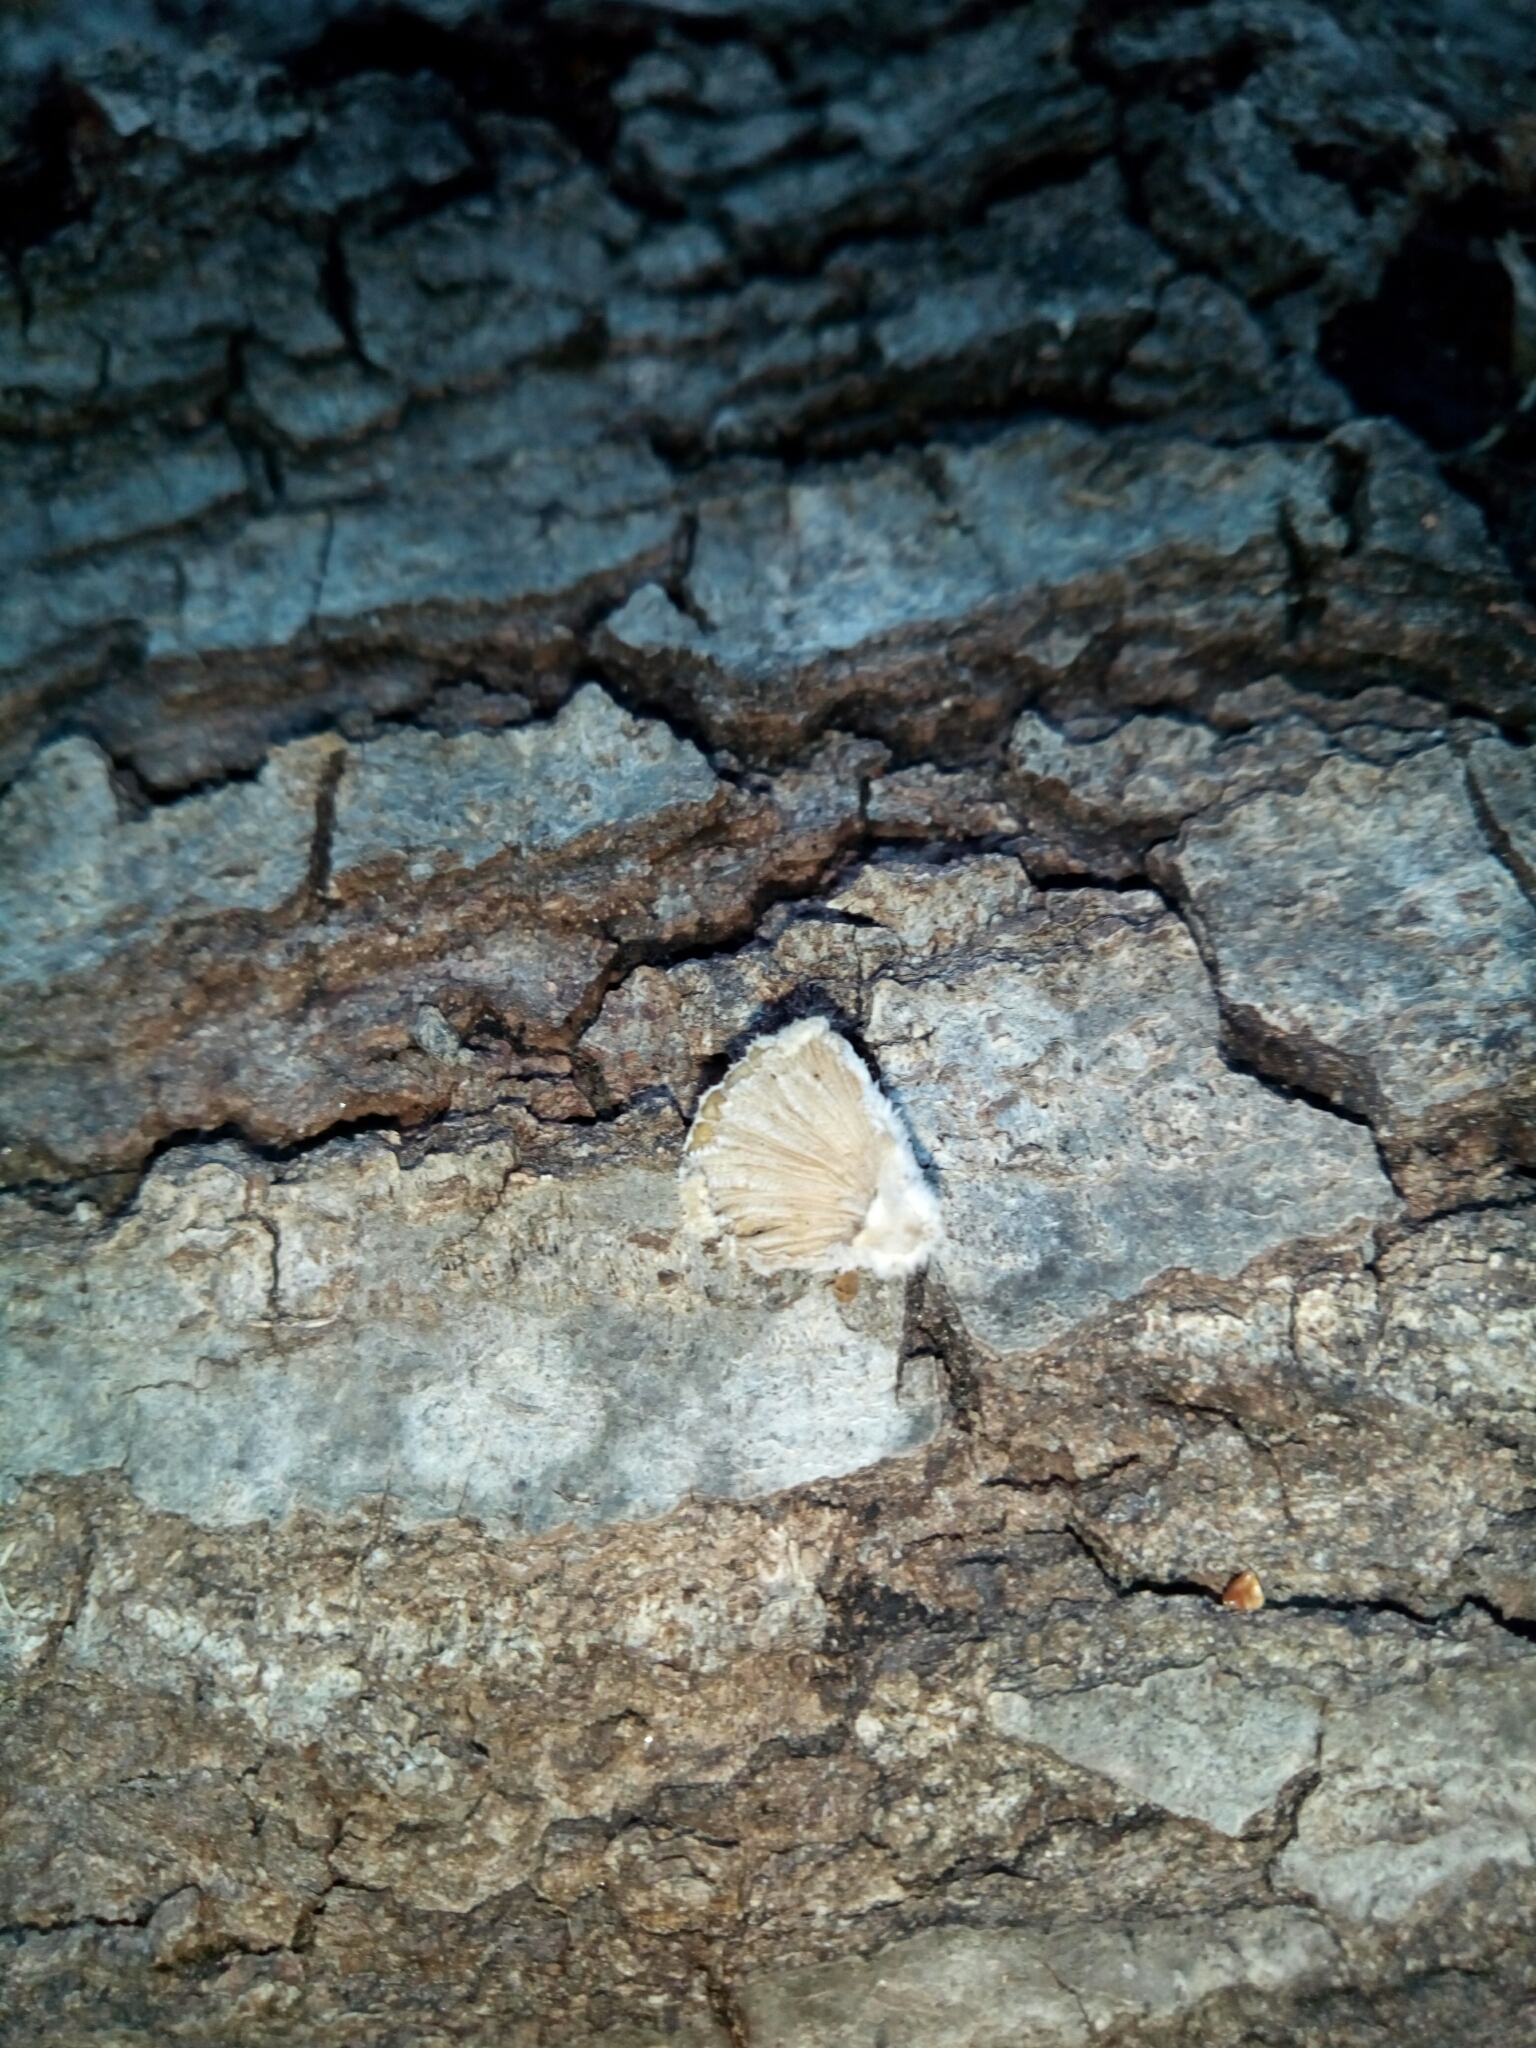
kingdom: Fungi
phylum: Basidiomycota
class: Agaricomycetes
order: Agaricales
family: Schizophyllaceae
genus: Schizophyllum
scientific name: Schizophyllum commune
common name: Common porecrust
